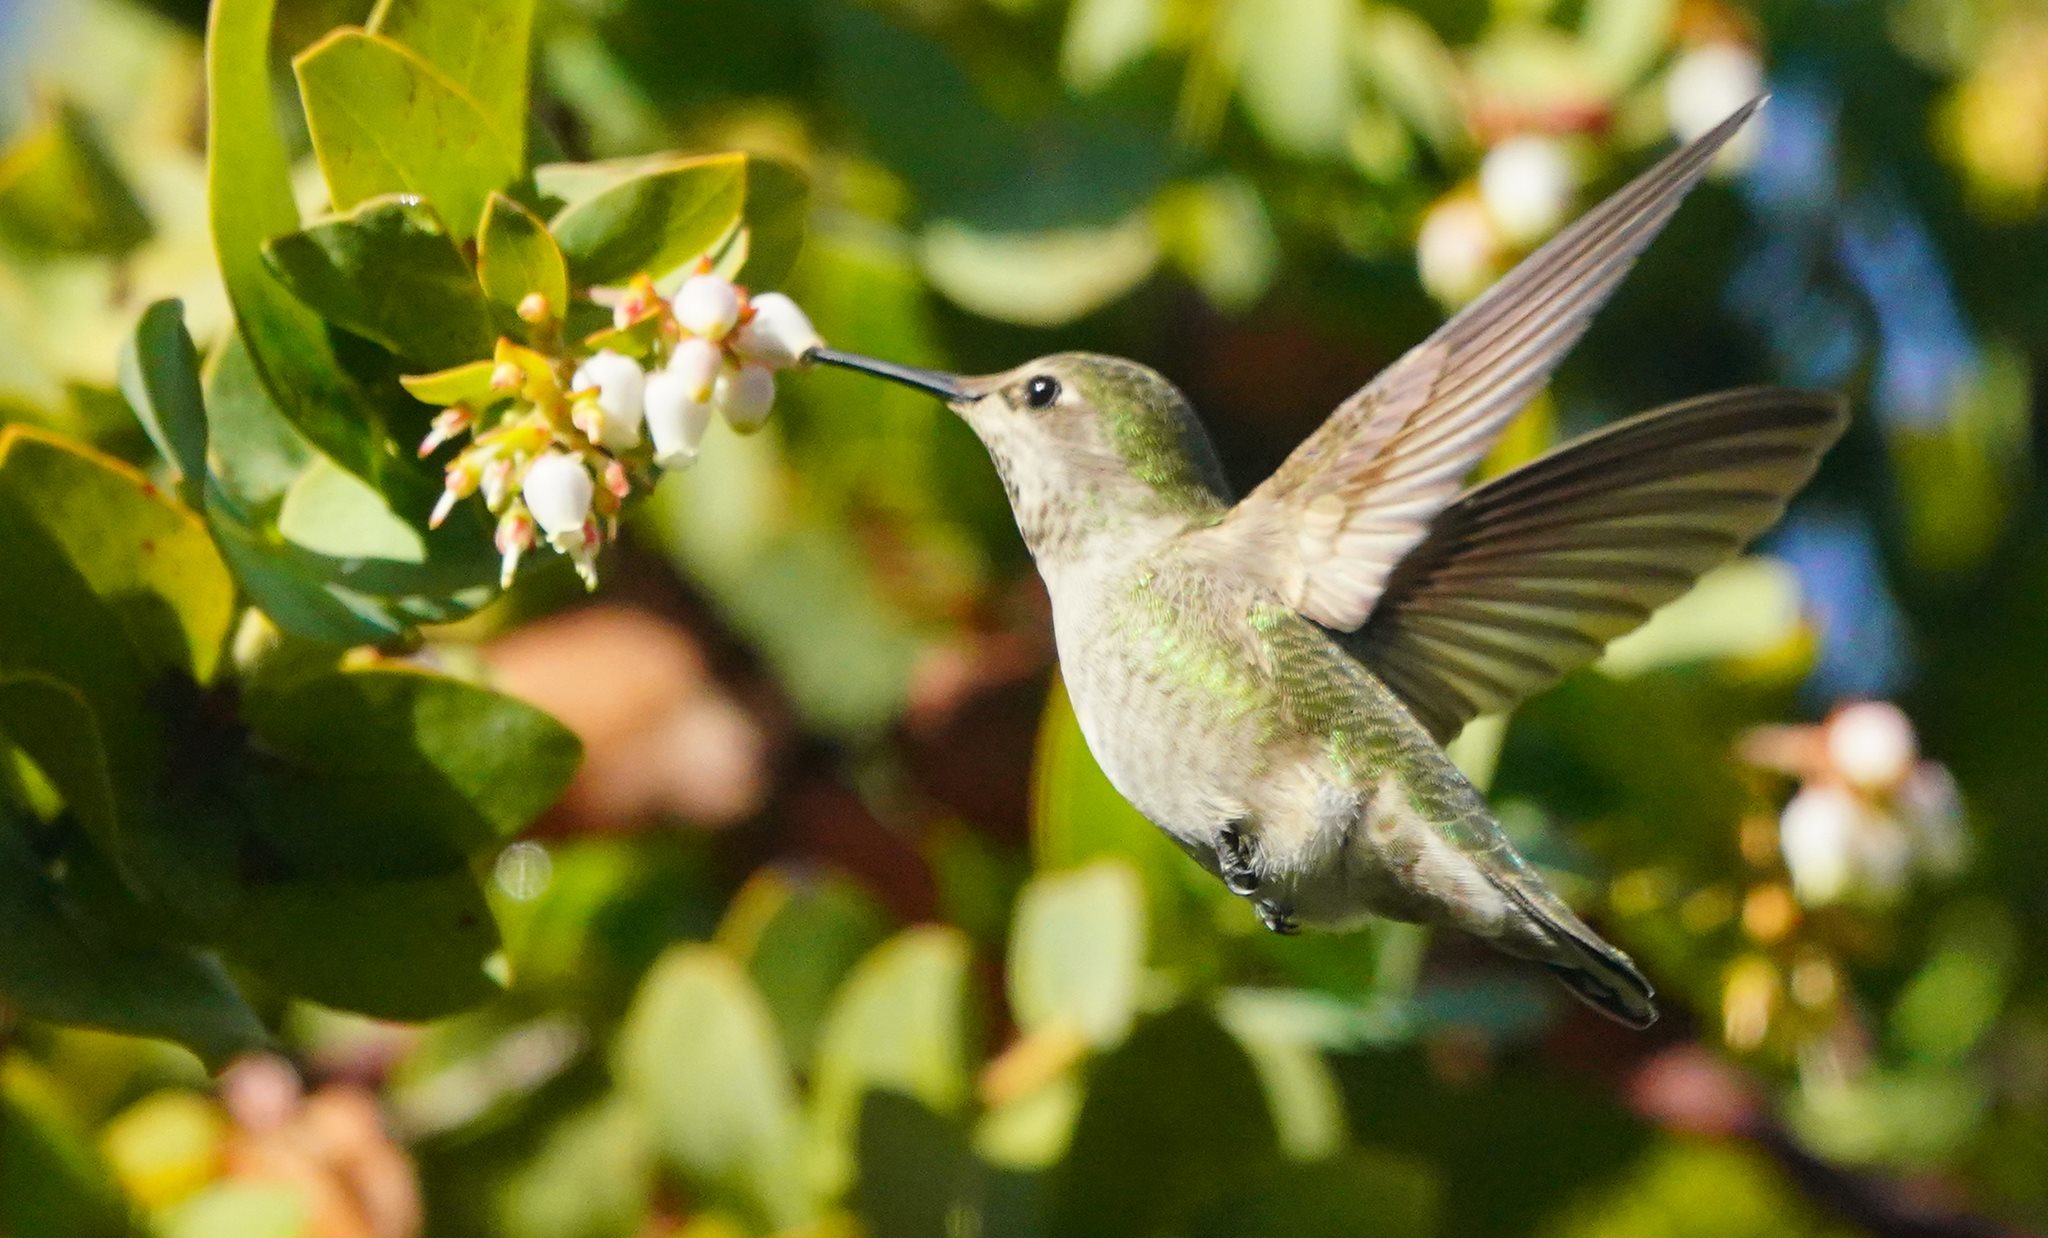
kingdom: Plantae
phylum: Tracheophyta
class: Magnoliopsida
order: Ericales
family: Ericaceae
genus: Arctostaphylos
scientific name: Arctostaphylos pallida
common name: Pallid manzanita
